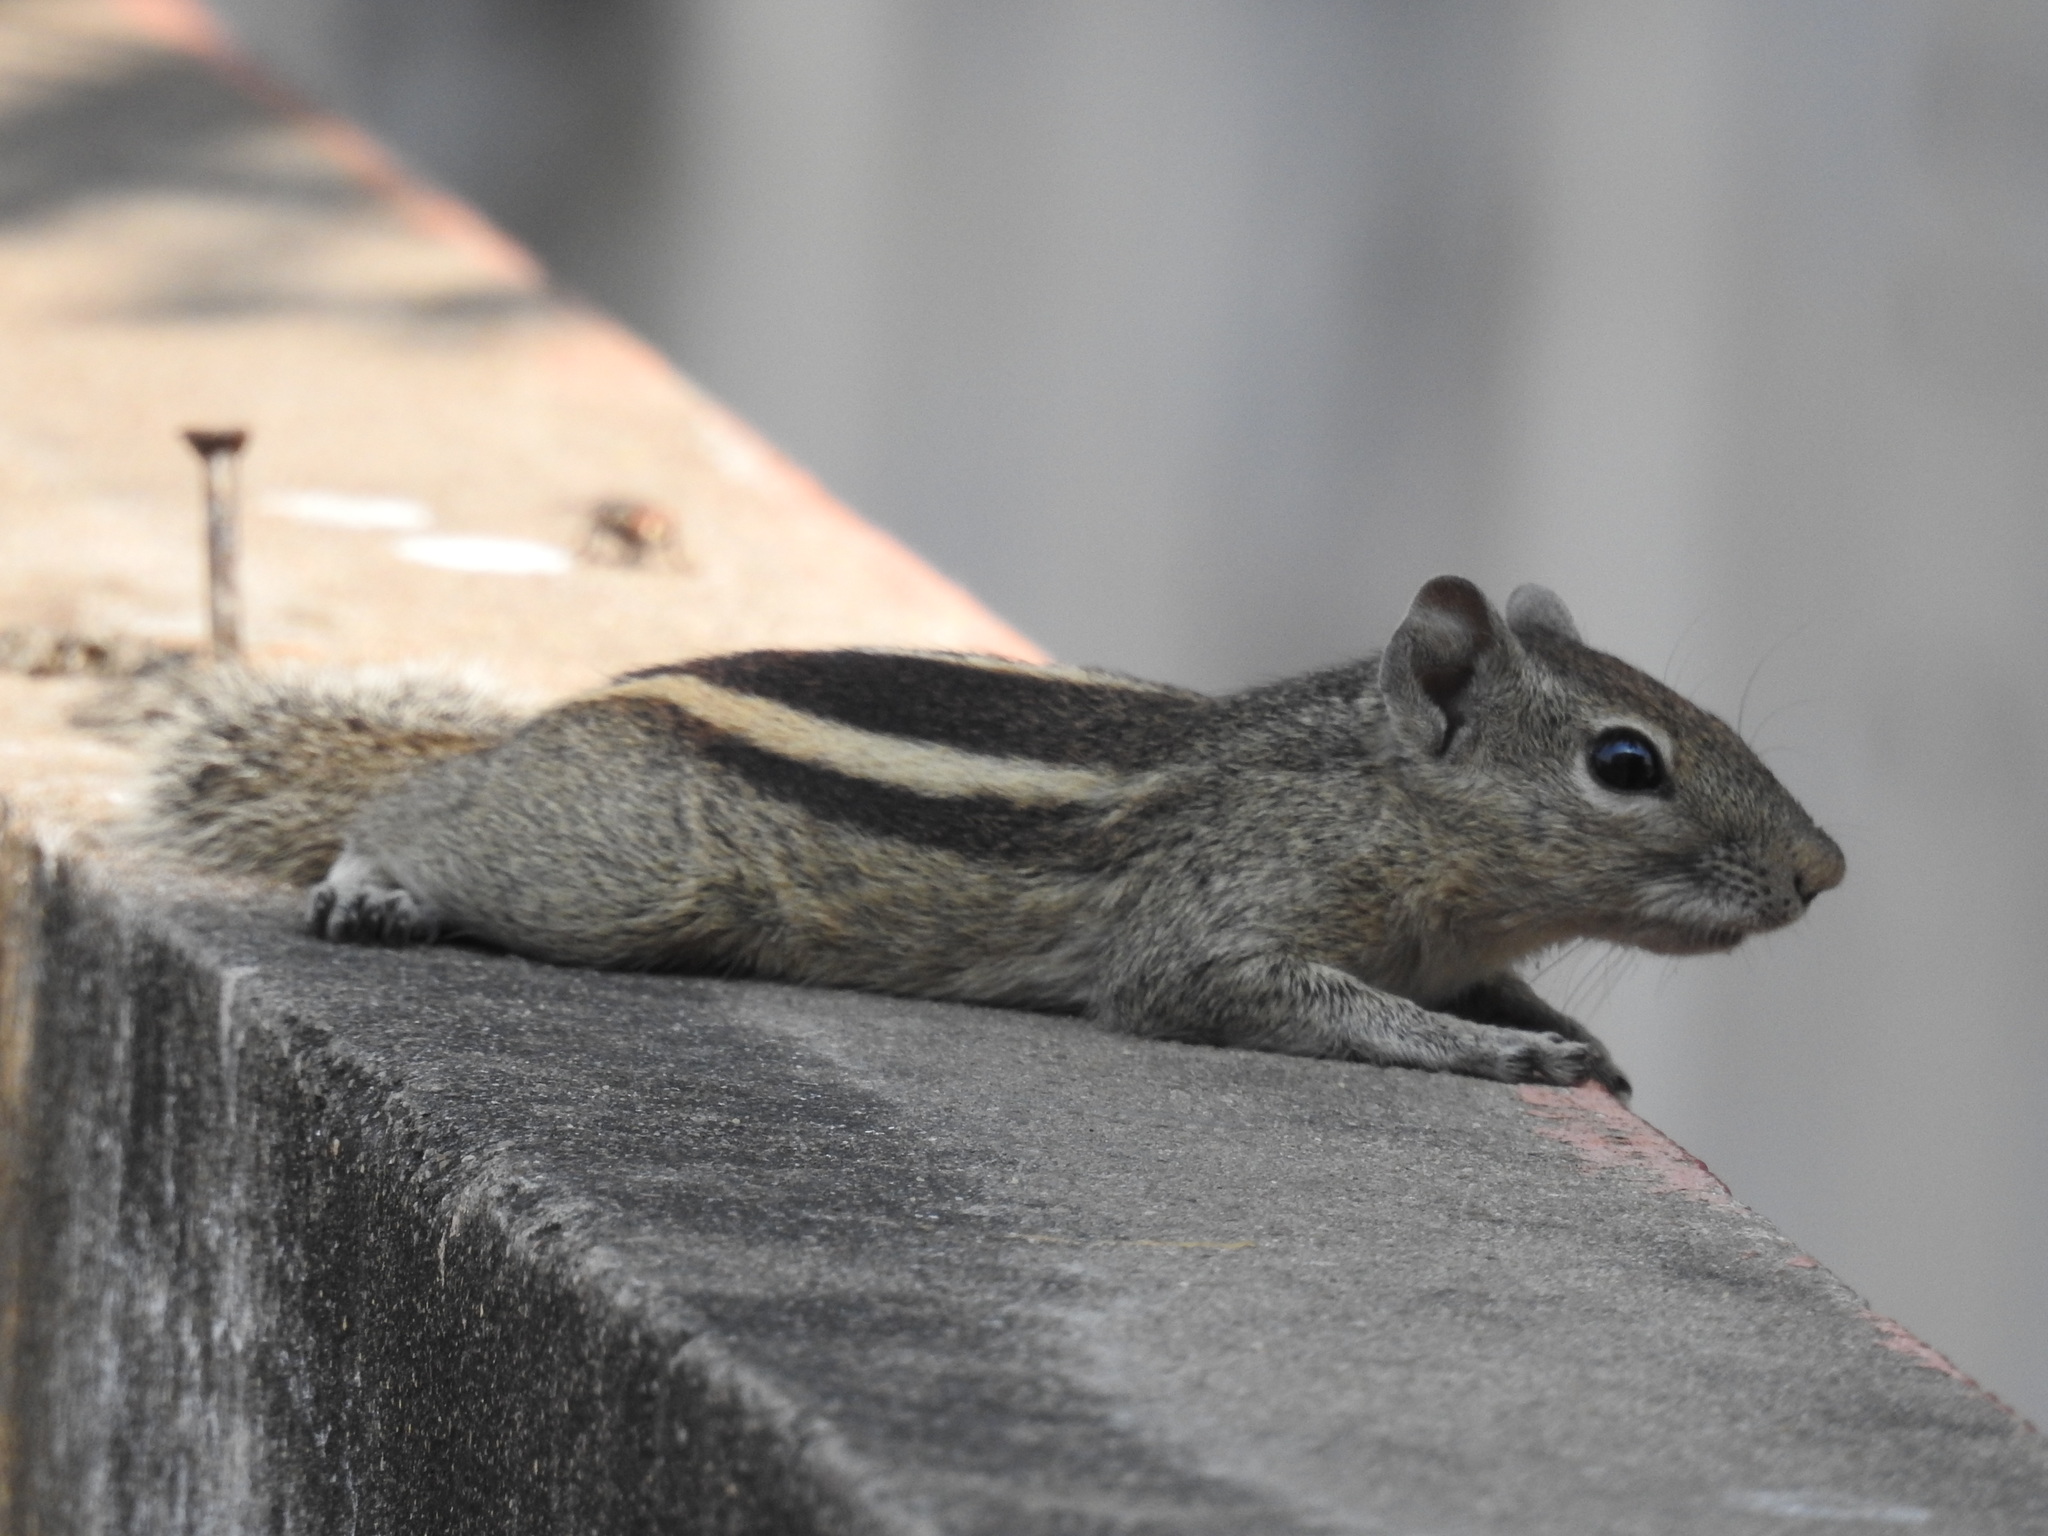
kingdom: Animalia
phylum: Chordata
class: Mammalia
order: Rodentia
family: Sciuridae
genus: Funambulus
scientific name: Funambulus palmarum
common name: Indian palm squirrel
